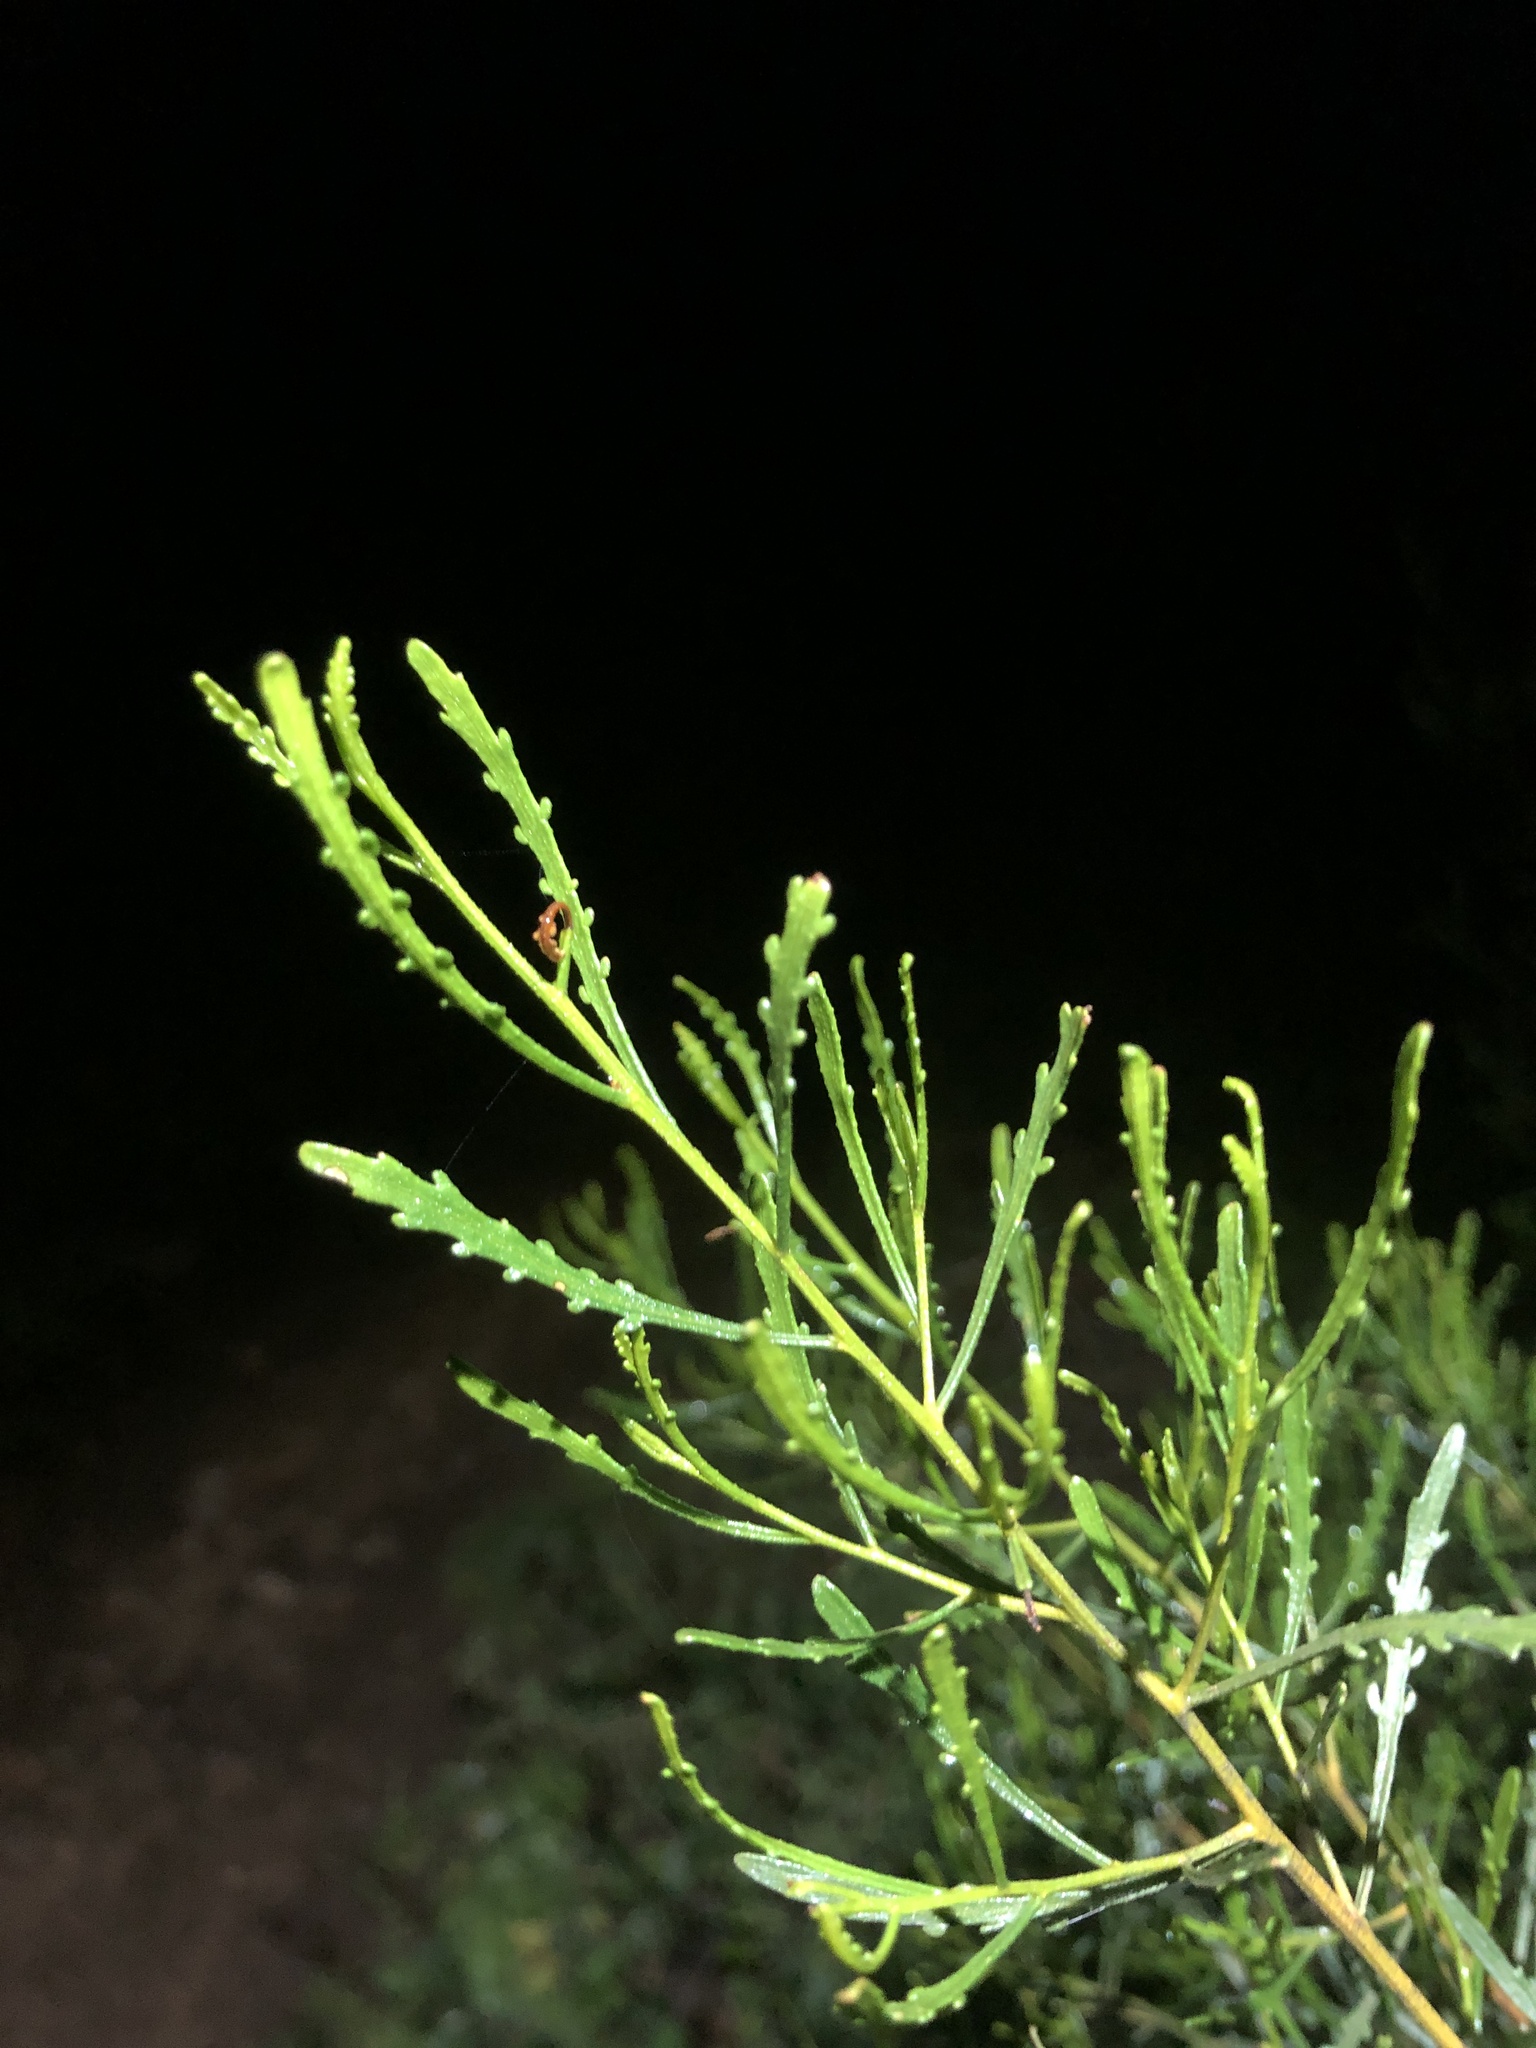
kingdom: Plantae
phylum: Tracheophyta
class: Magnoliopsida
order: Sapindales
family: Sapindaceae
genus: Dodonaea
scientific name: Dodonaea lobulata
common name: Lobe-leaf hopbush
